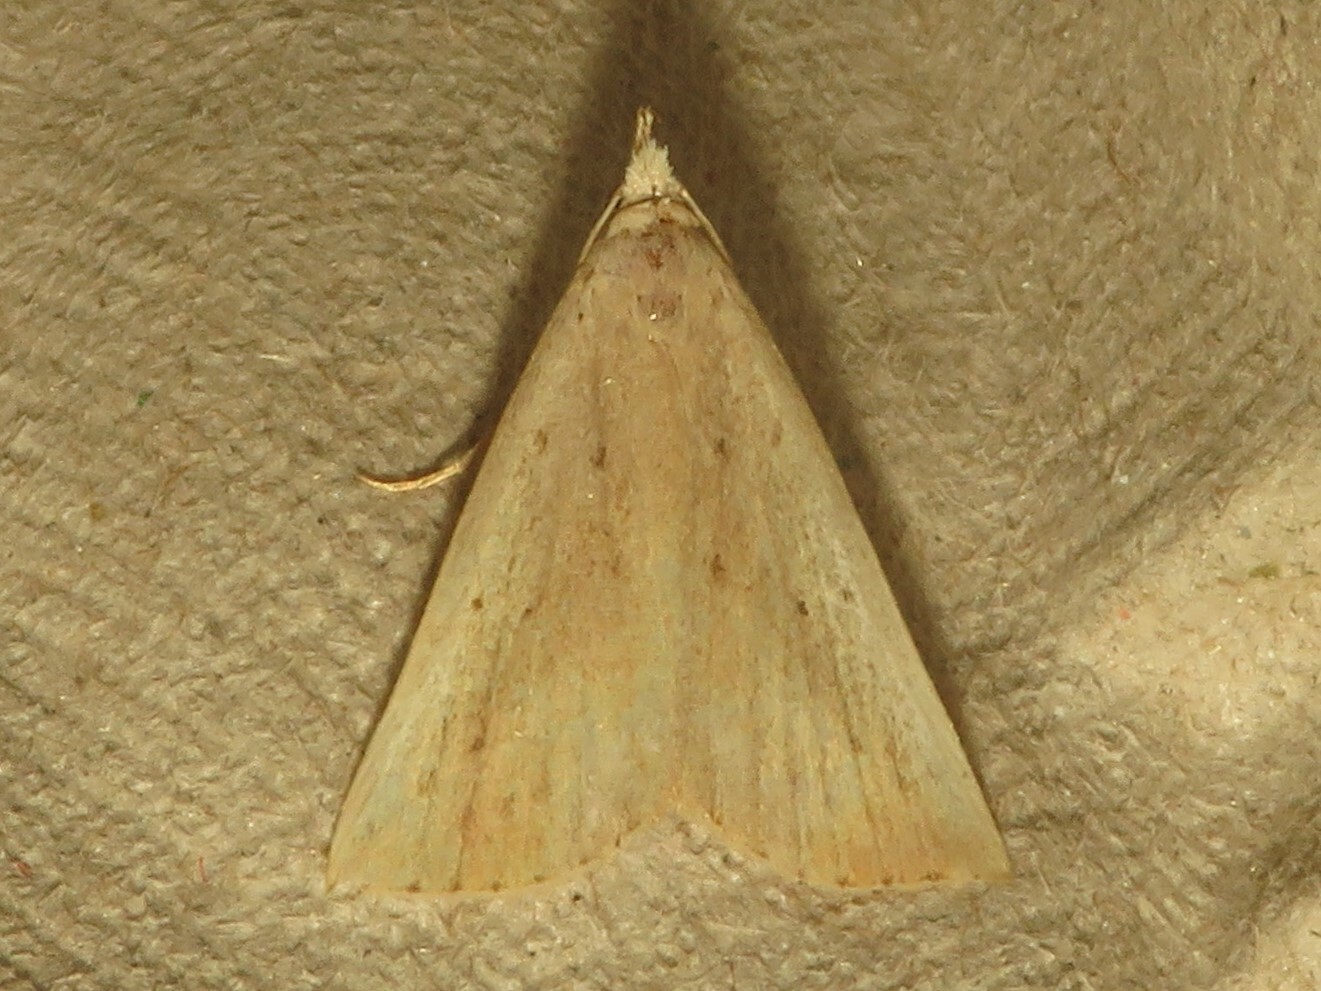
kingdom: Animalia
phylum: Arthropoda
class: Insecta
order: Lepidoptera
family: Erebidae
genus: Macrochilo
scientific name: Macrochilo louisiana
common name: Louisiana macrochilo
